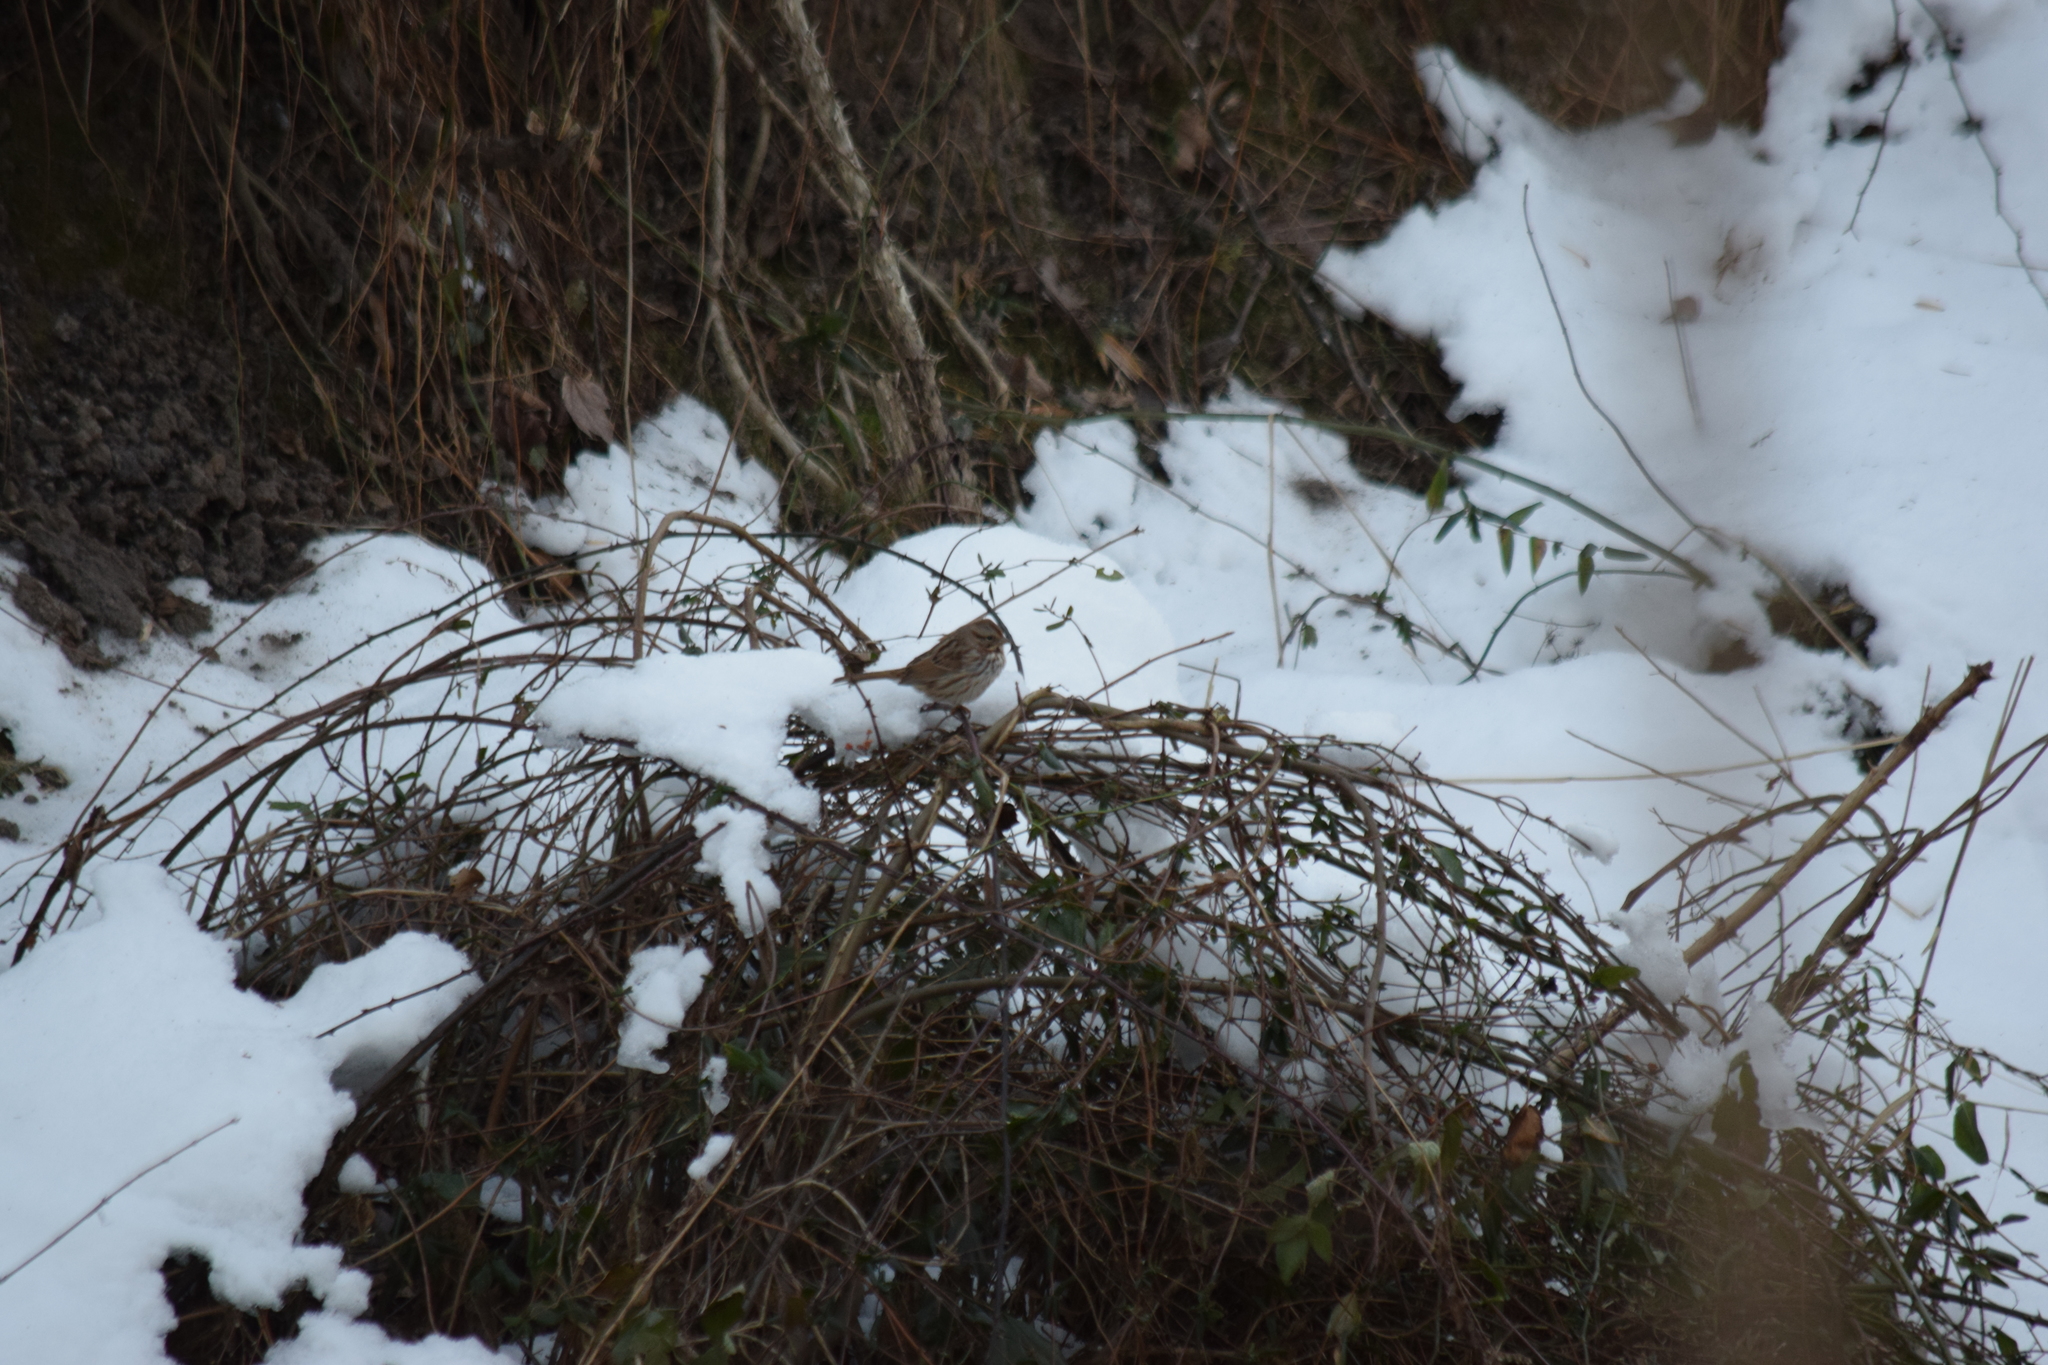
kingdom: Animalia
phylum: Chordata
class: Aves
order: Passeriformes
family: Passerellidae
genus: Melospiza
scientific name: Melospiza melodia
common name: Song sparrow
